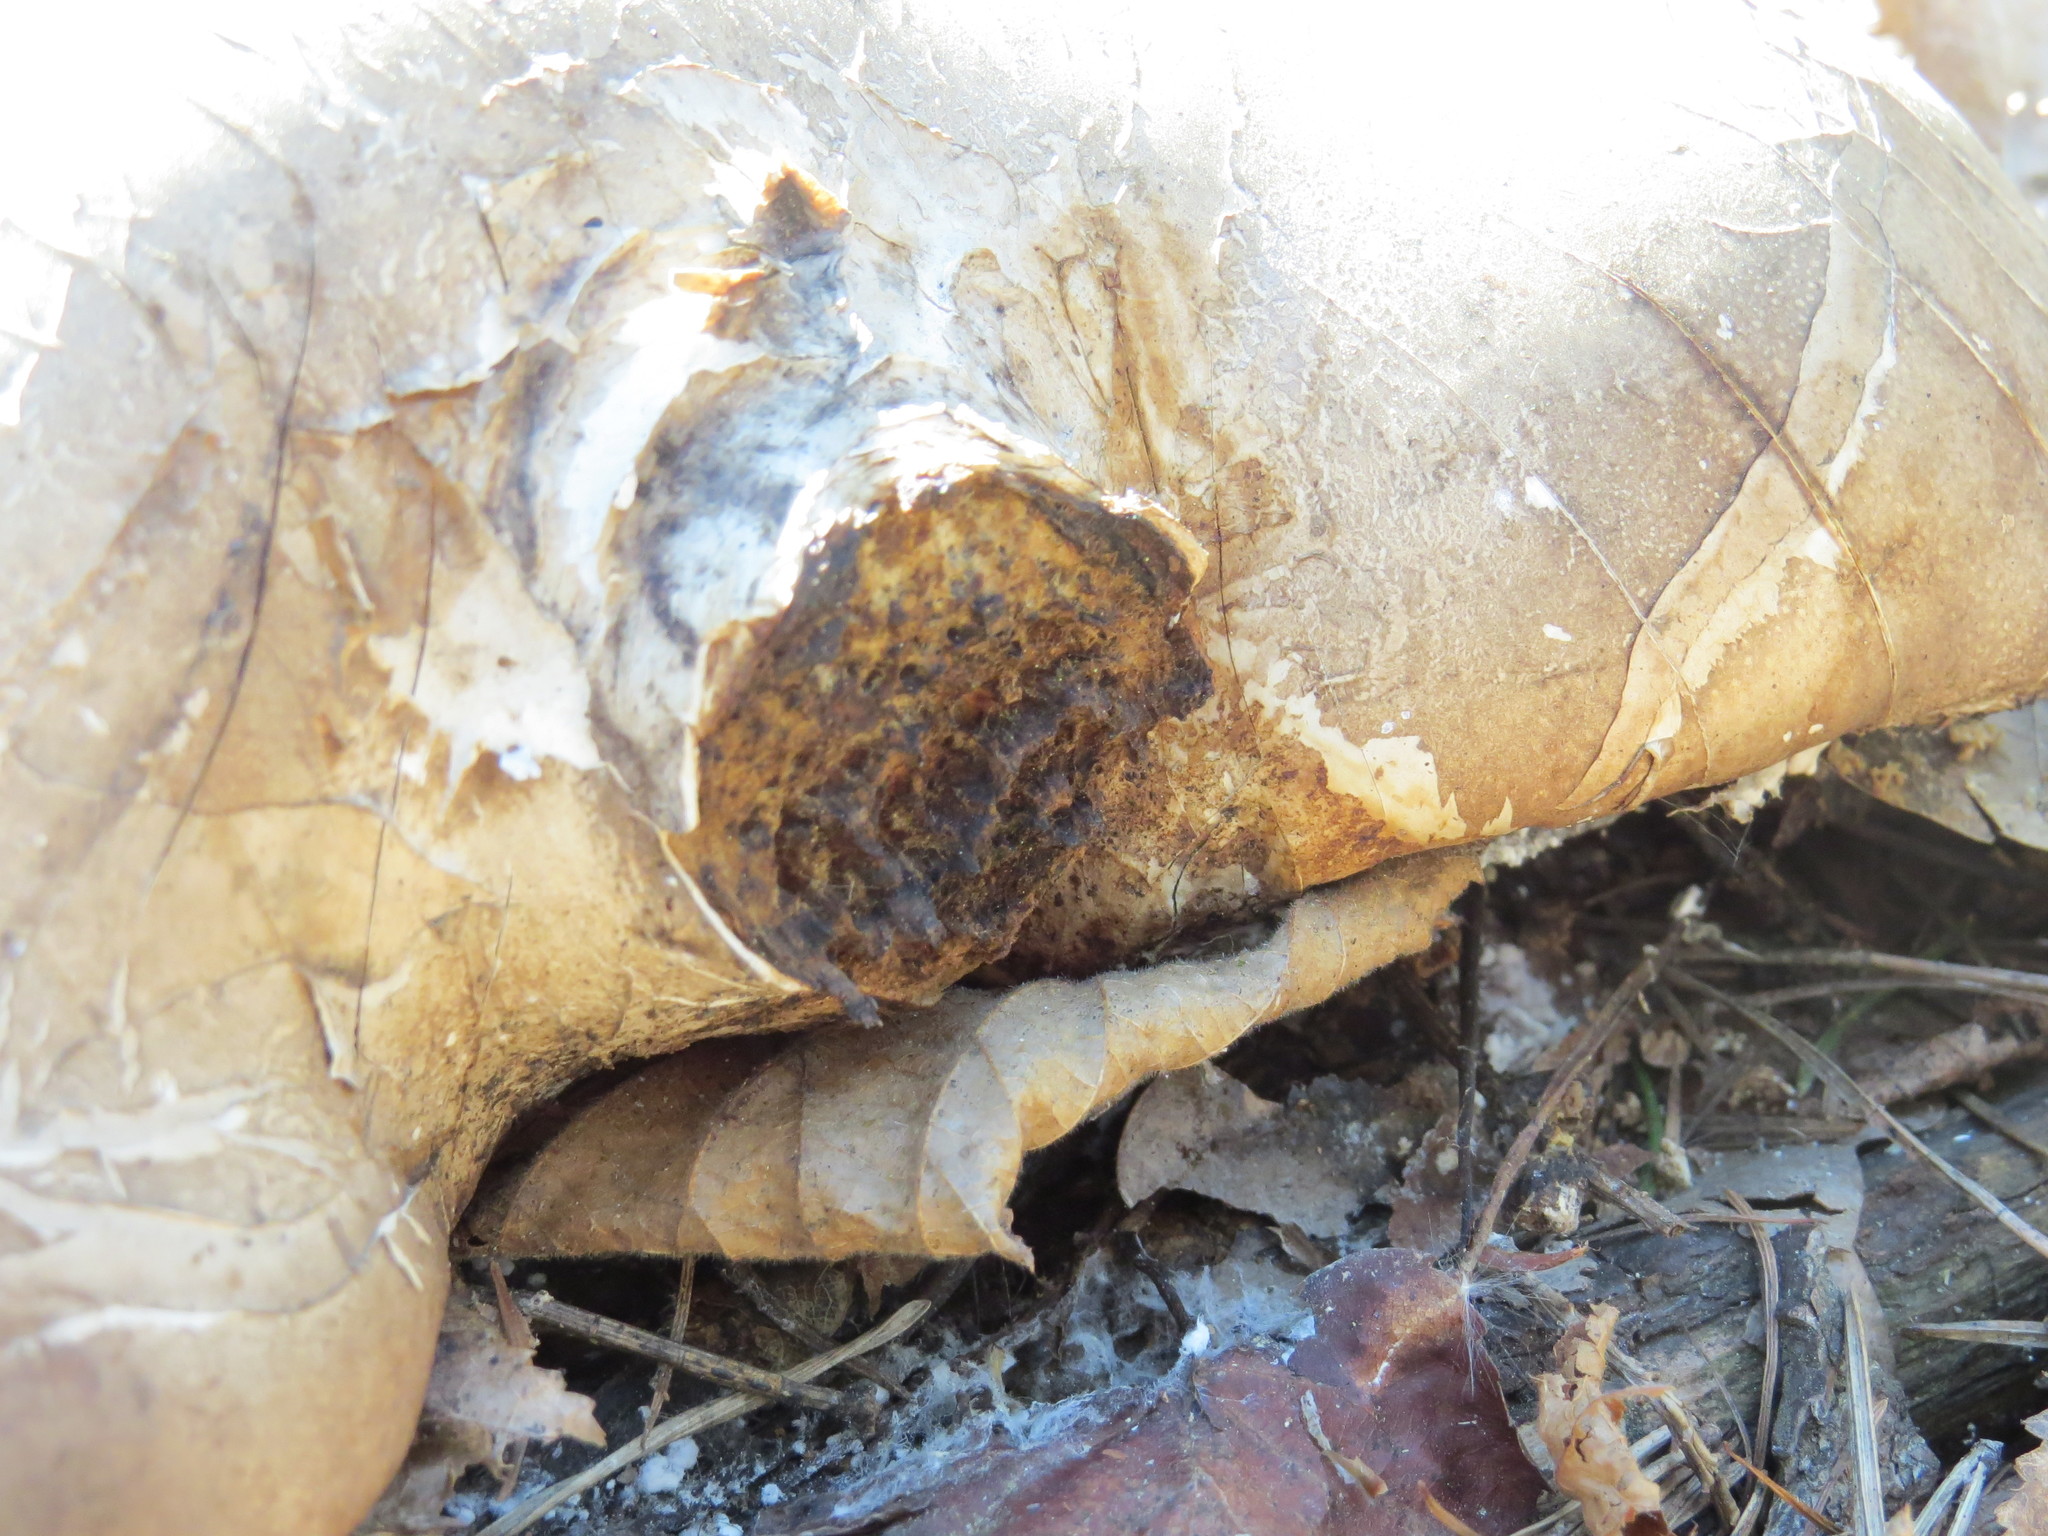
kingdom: Fungi
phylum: Basidiomycota
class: Agaricomycetes
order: Polyporales
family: Fomitopsidaceae
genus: Fomitopsis
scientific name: Fomitopsis betulina
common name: Birch polypore
